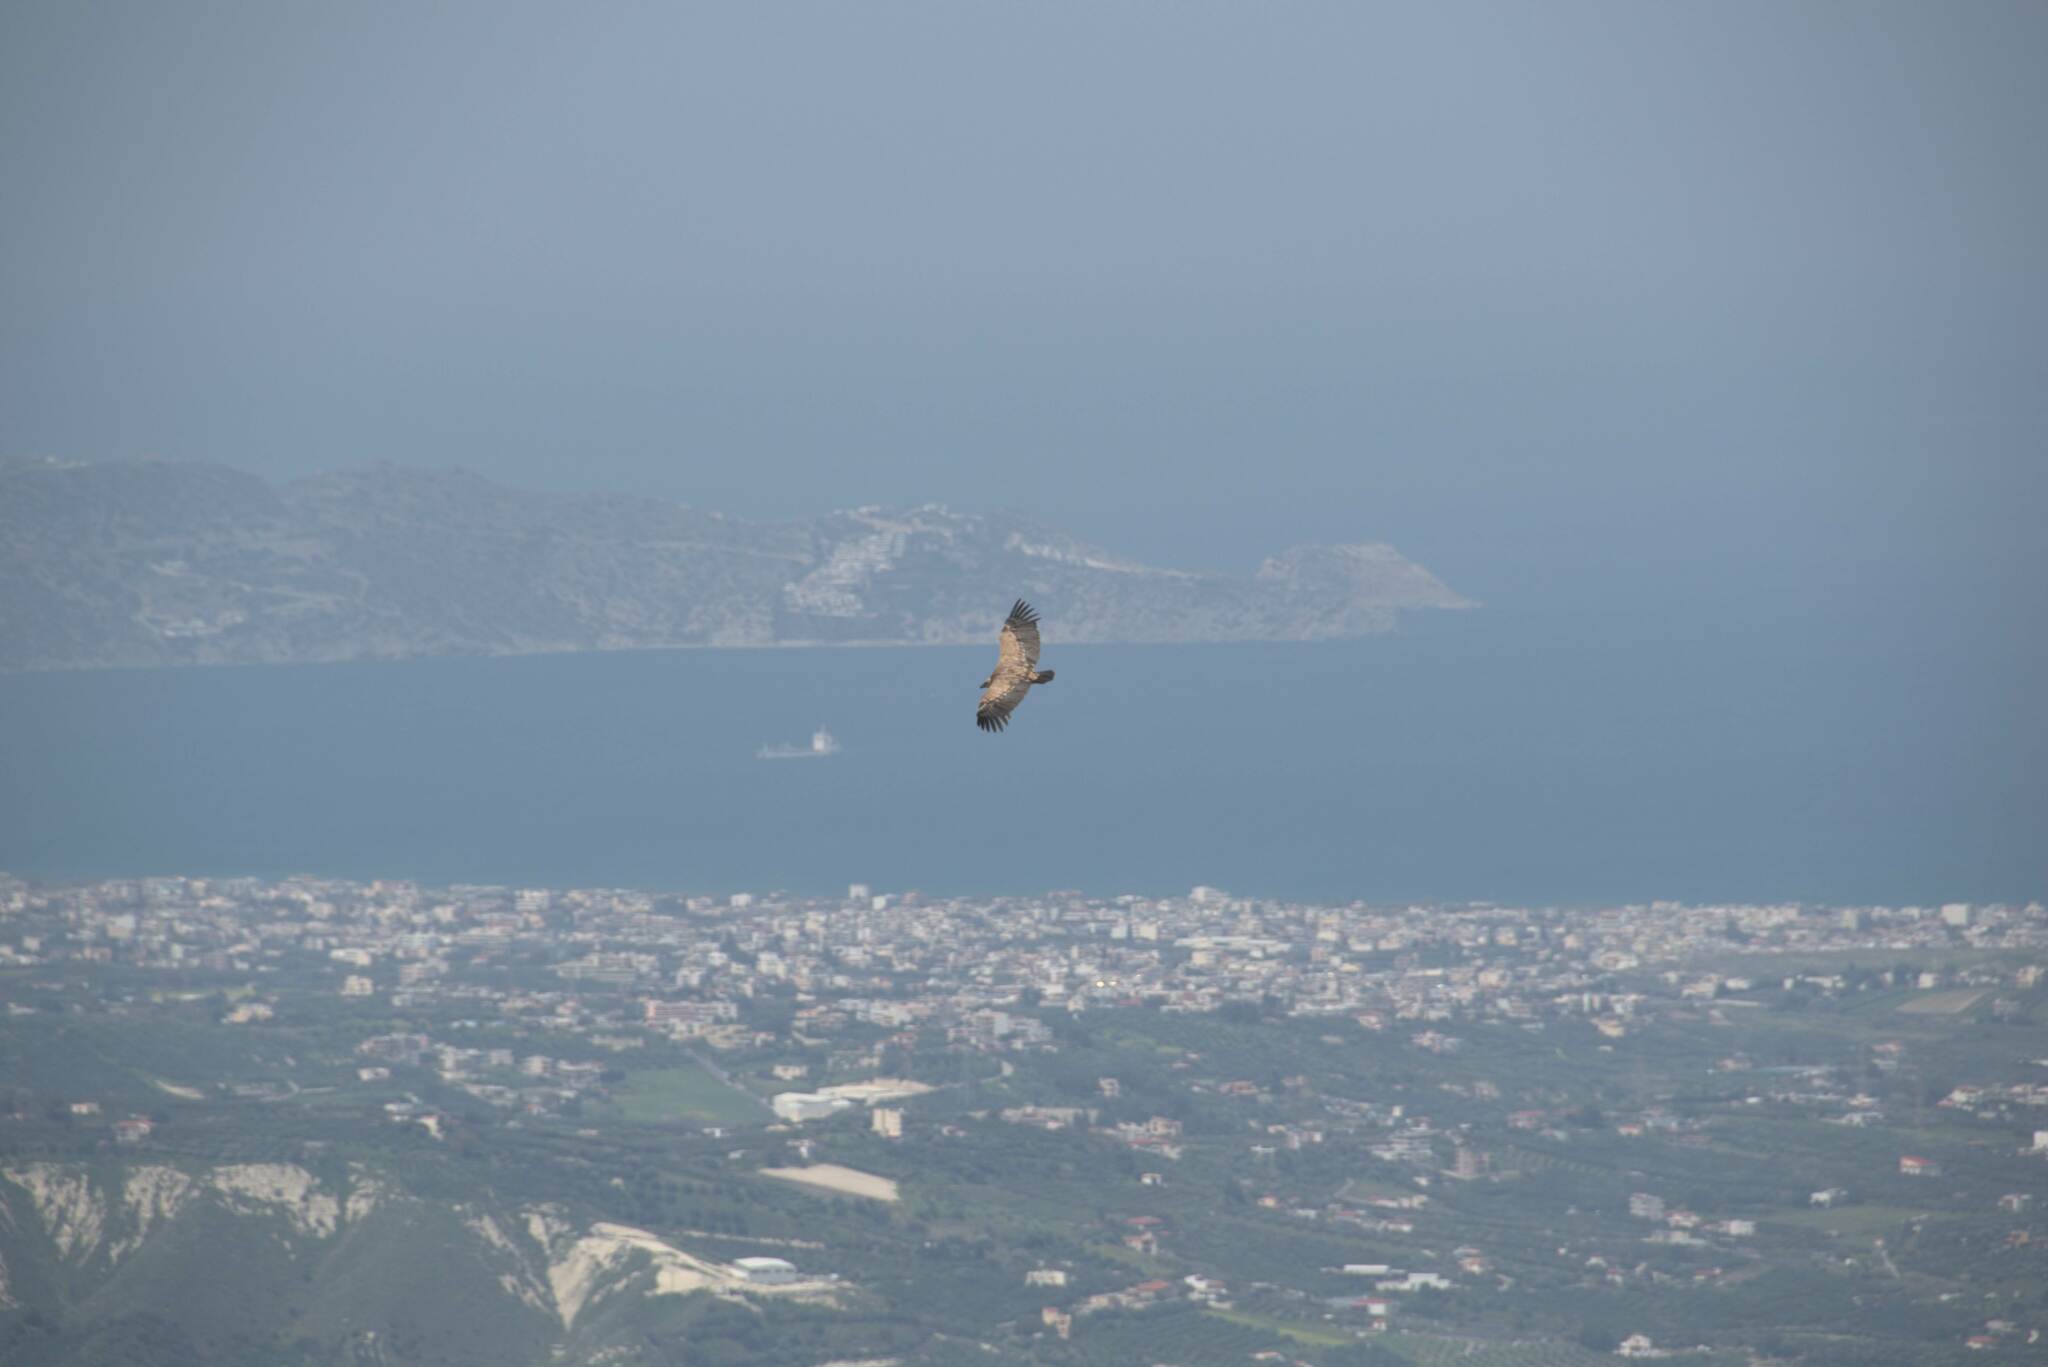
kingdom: Animalia
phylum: Chordata
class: Aves
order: Accipitriformes
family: Accipitridae
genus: Gyps
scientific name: Gyps fulvus
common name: Griffon vulture
